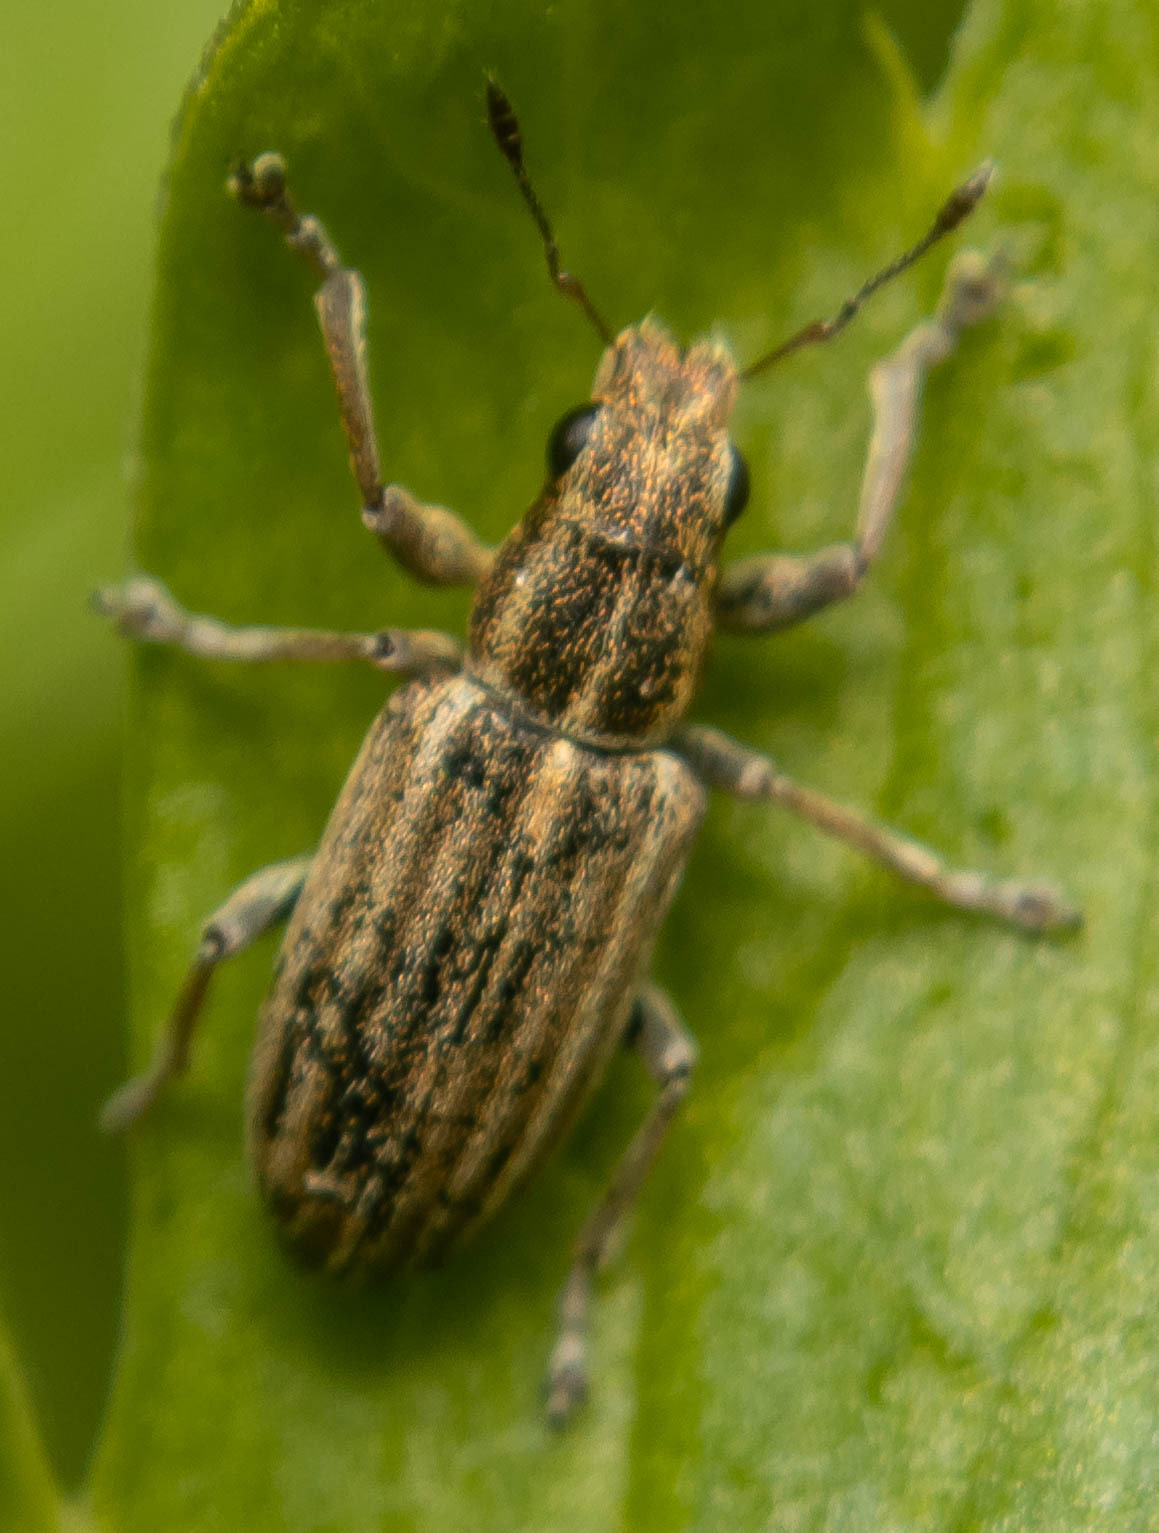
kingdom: Animalia
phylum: Arthropoda
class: Insecta
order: Coleoptera
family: Curculionidae
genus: Sitona
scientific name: Sitona lineatus
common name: Weevil
